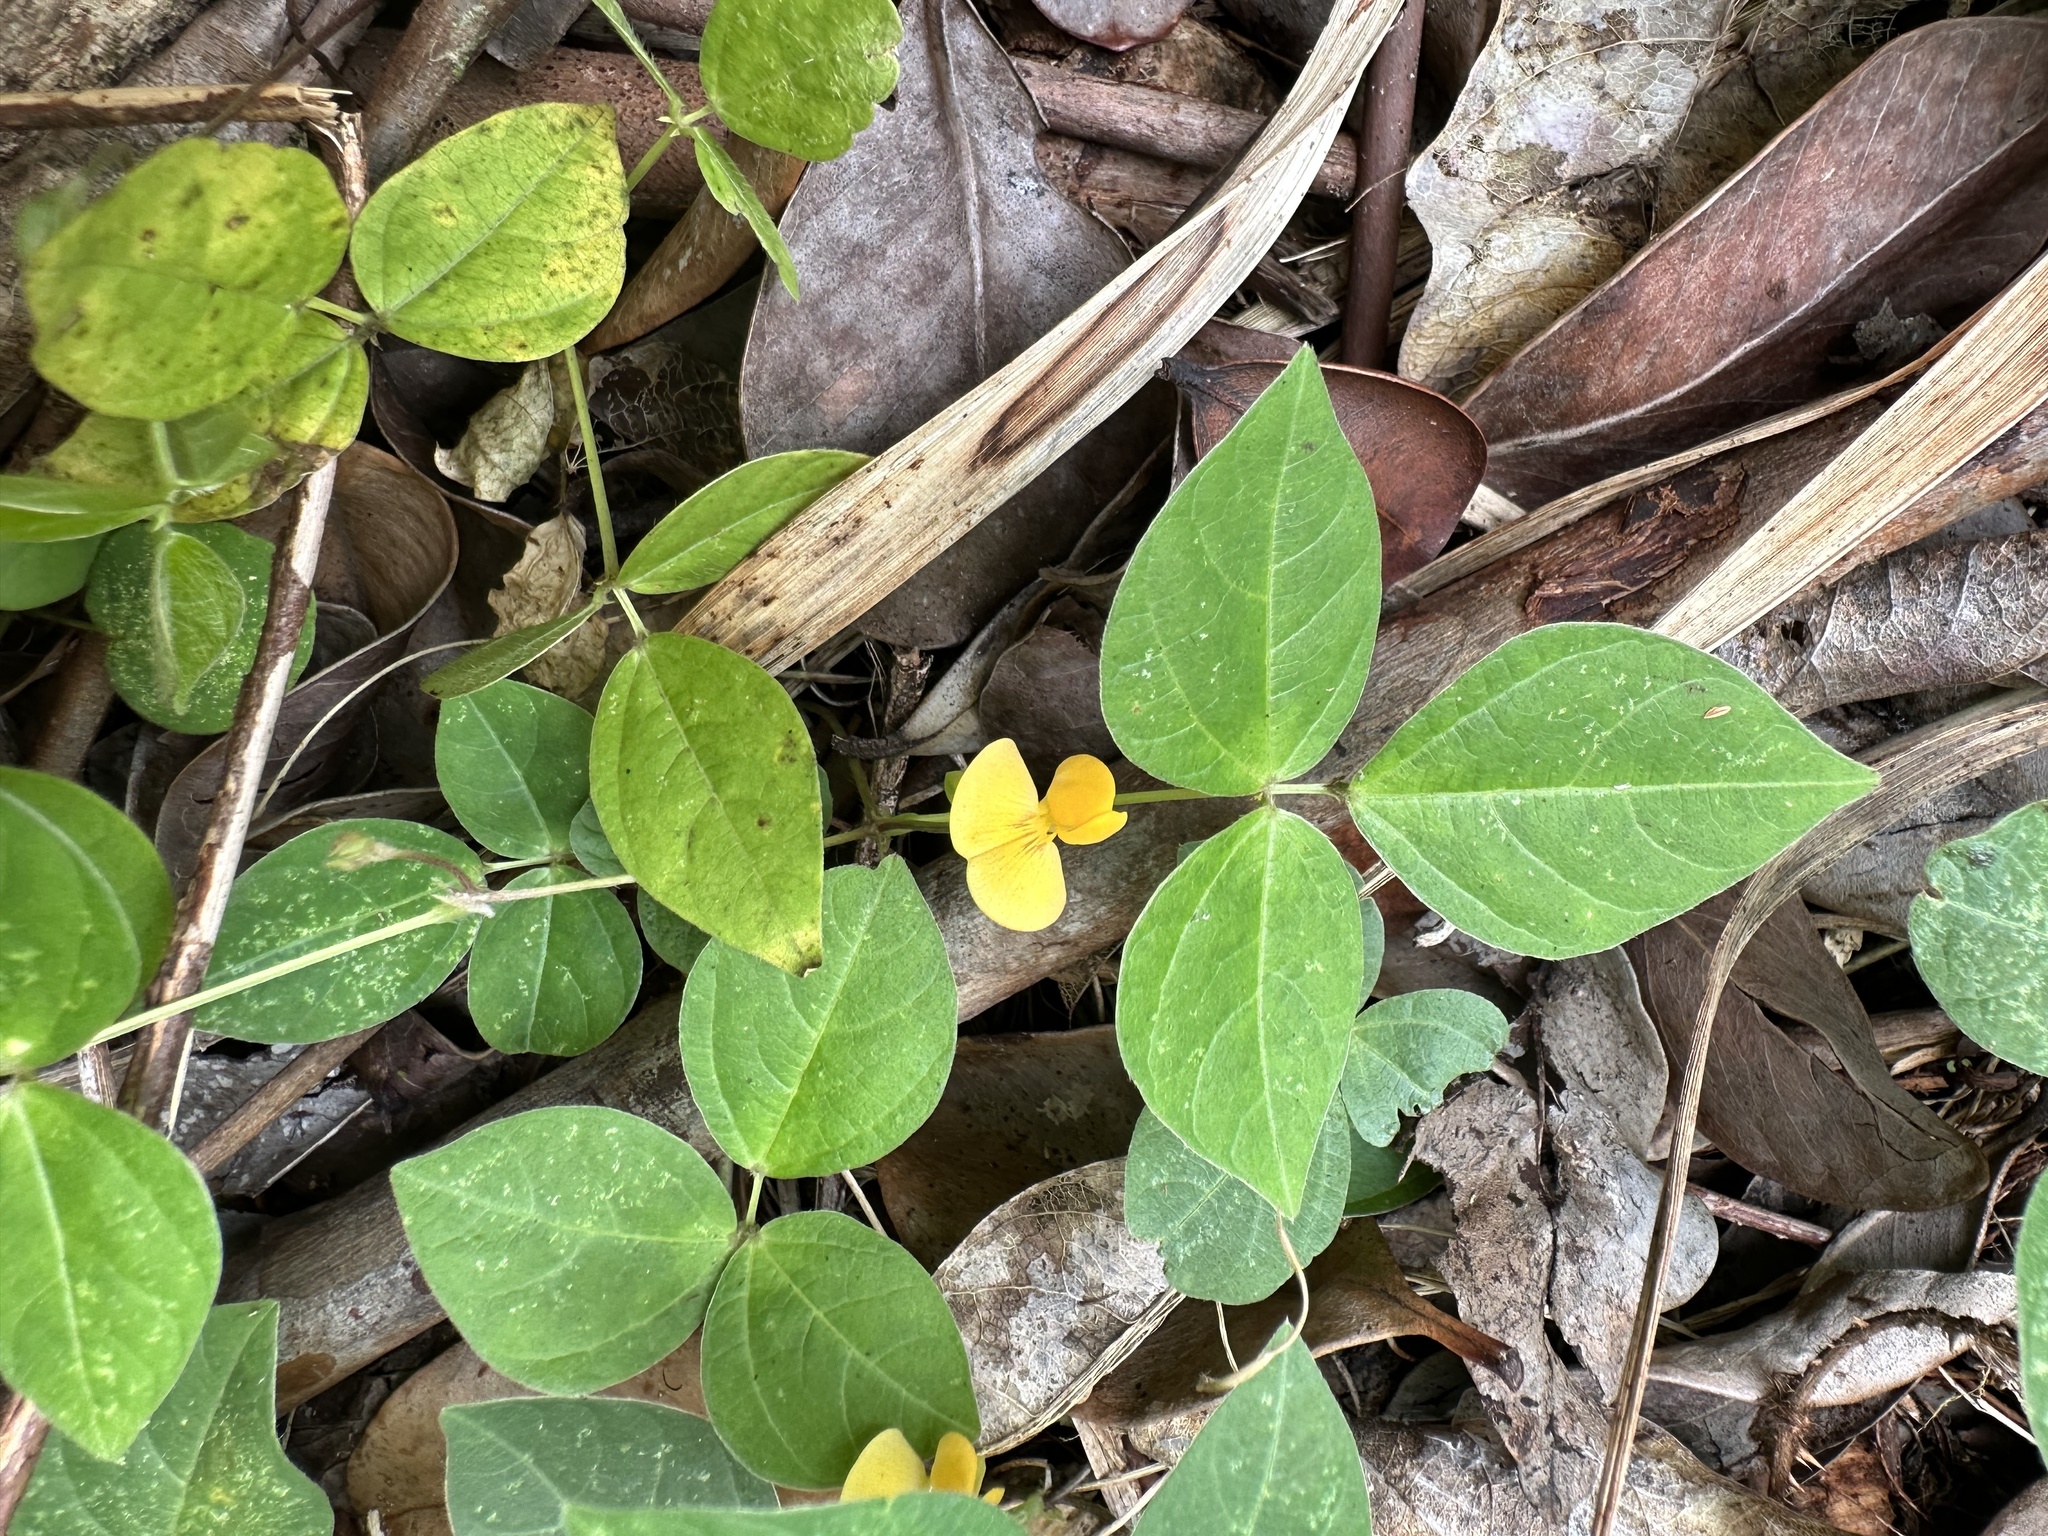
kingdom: Plantae
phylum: Tracheophyta
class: Magnoliopsida
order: Fabales
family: Fabaceae
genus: Vigna
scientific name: Vigna luteola
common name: Hairypod cowpea
